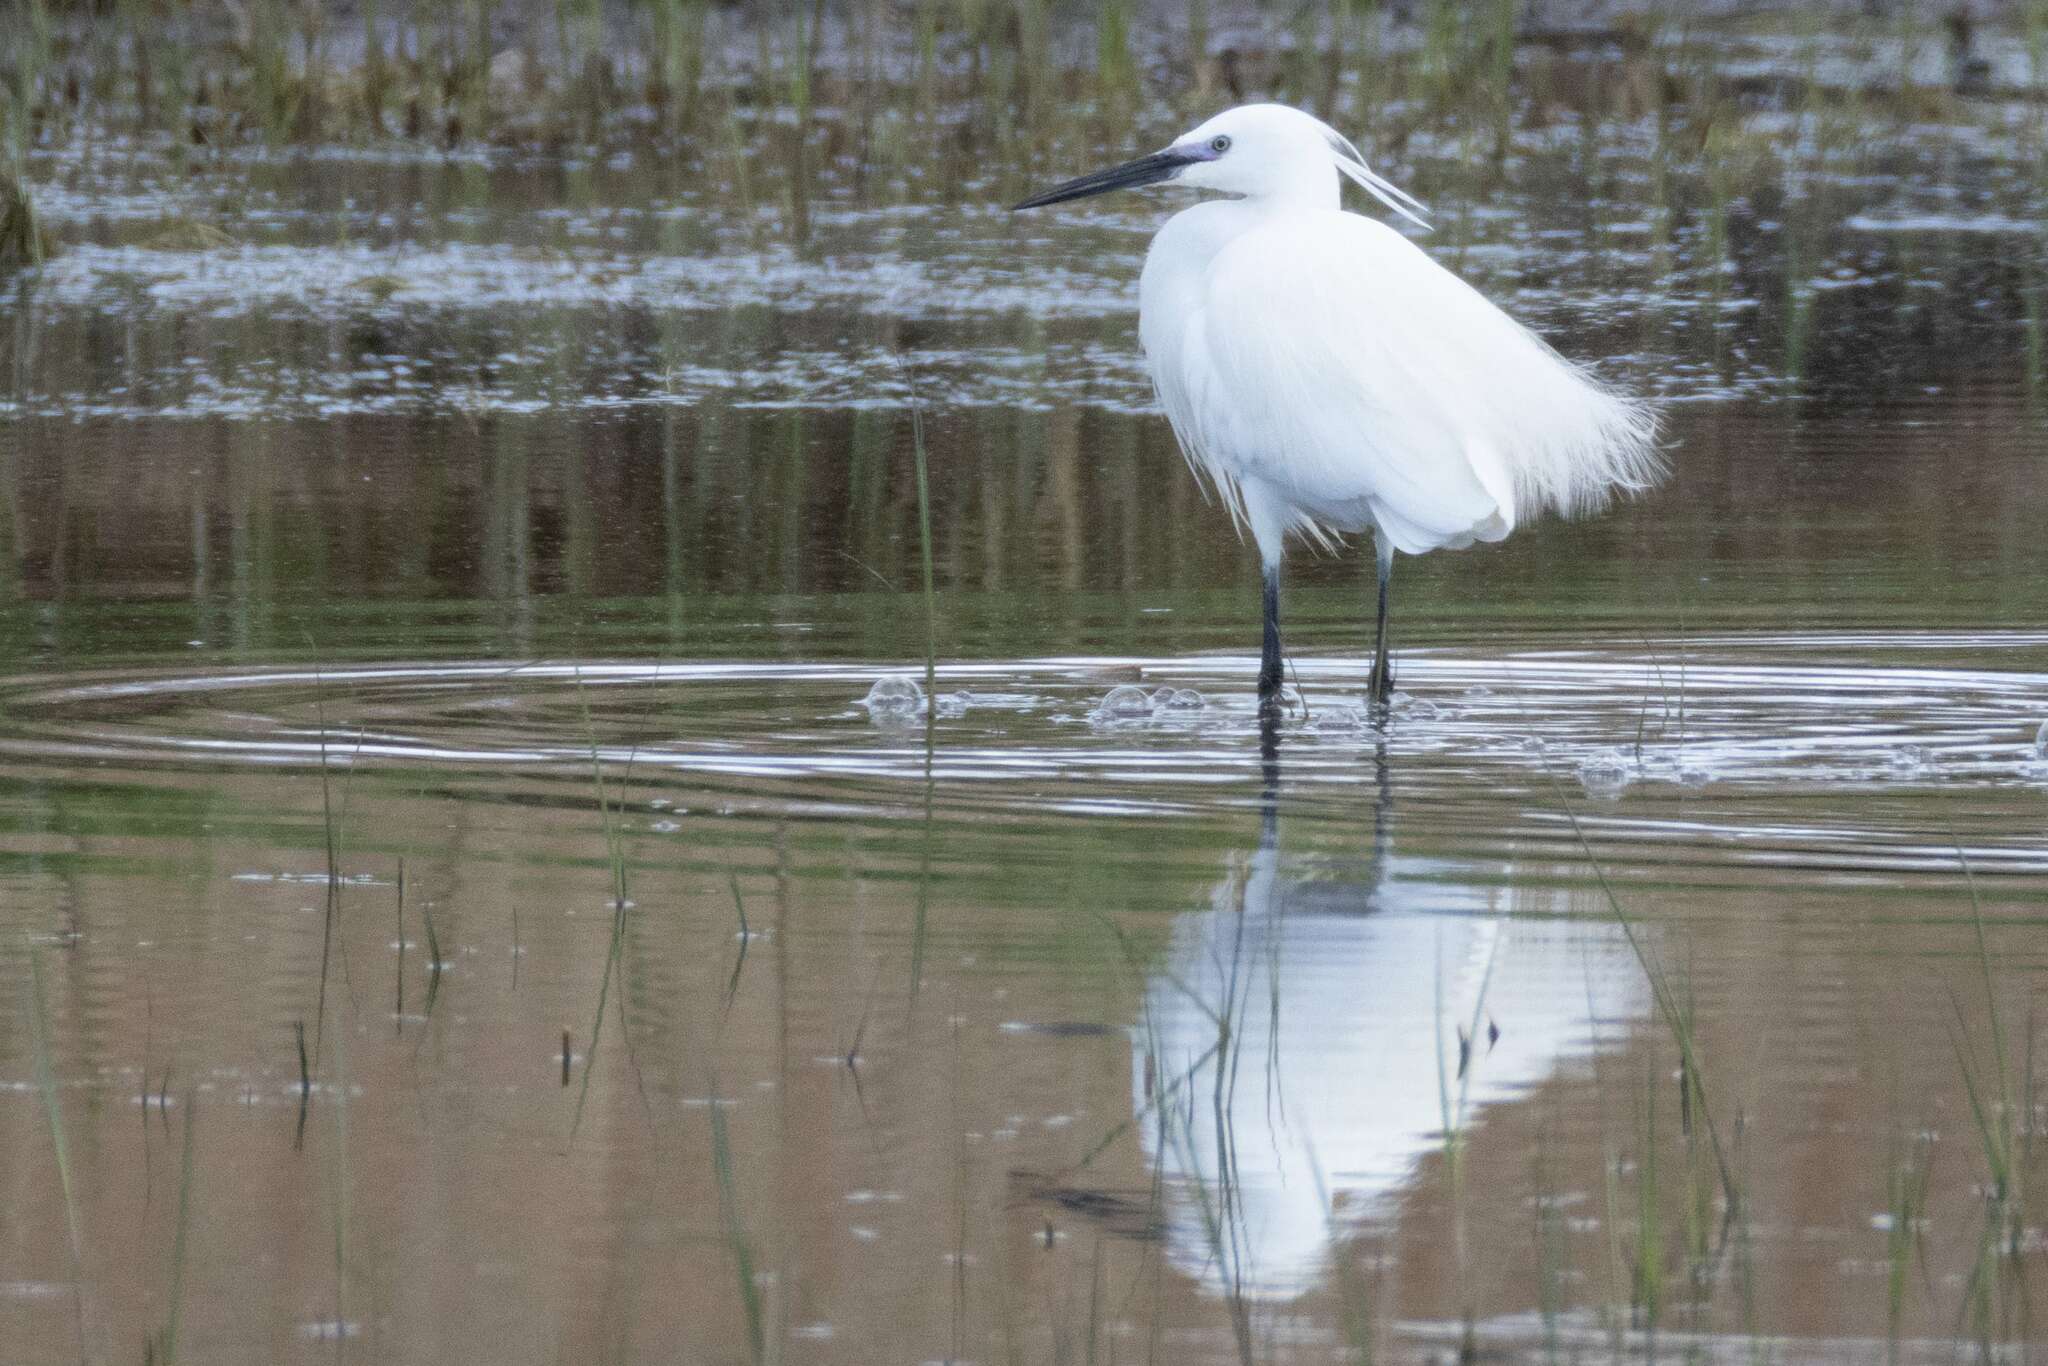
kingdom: Animalia
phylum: Chordata
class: Aves
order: Pelecaniformes
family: Ardeidae
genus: Egretta
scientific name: Egretta garzetta
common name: Little egret
